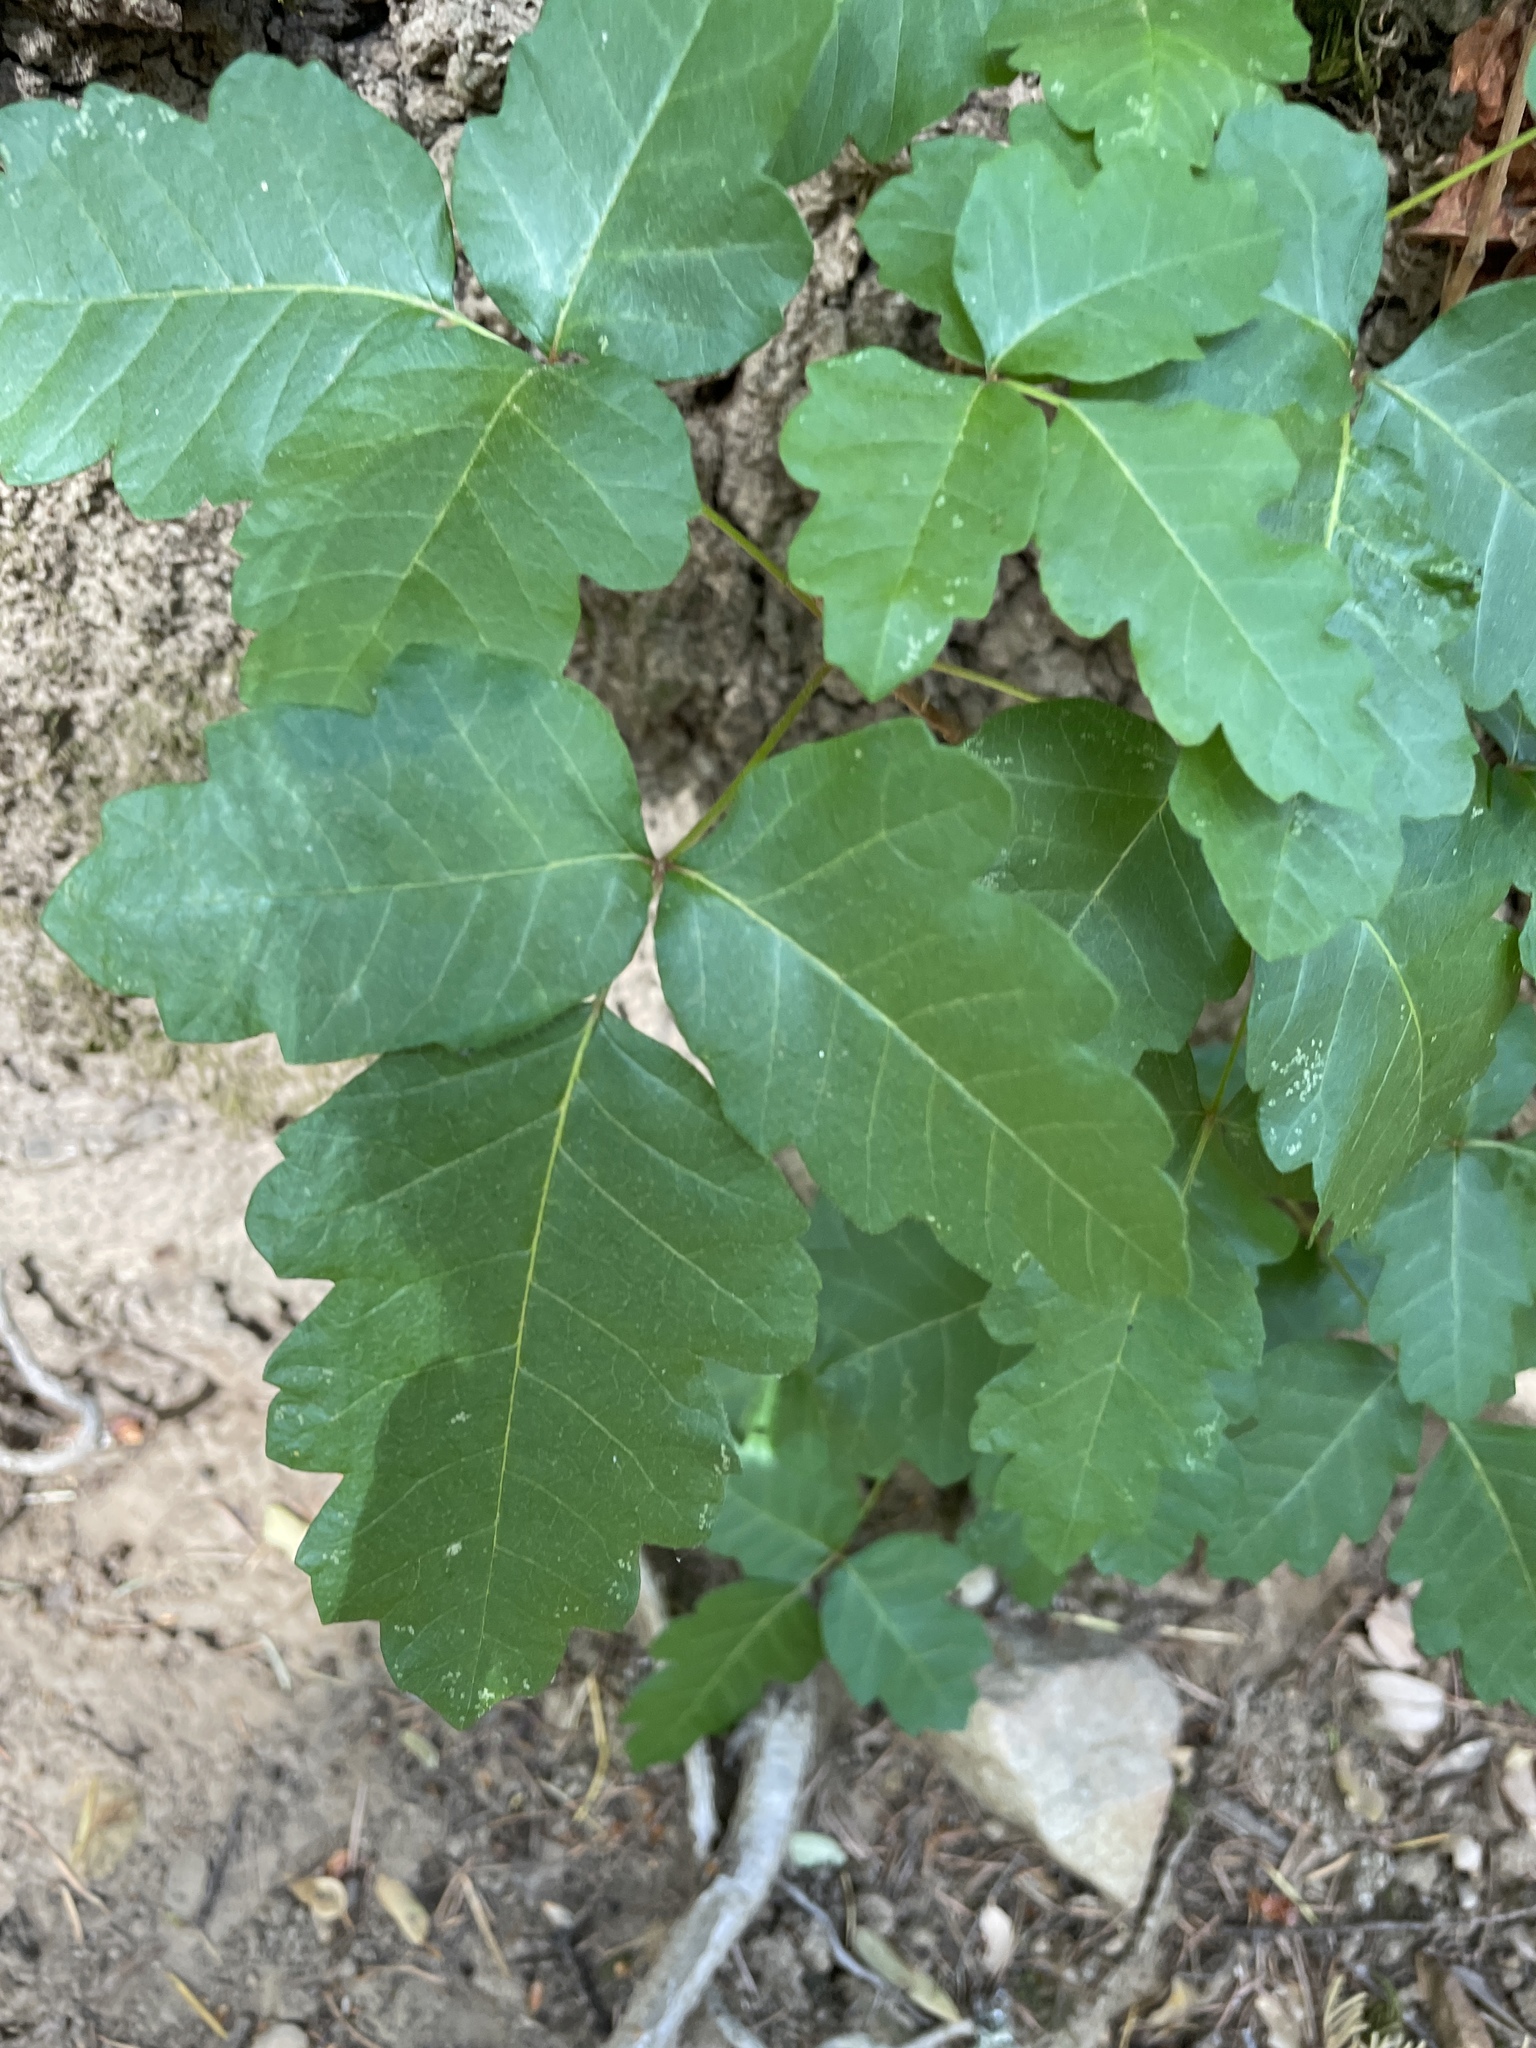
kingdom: Plantae
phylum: Tracheophyta
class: Magnoliopsida
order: Sapindales
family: Anacardiaceae
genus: Toxicodendron
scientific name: Toxicodendron diversilobum
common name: Pacific poison-oak
